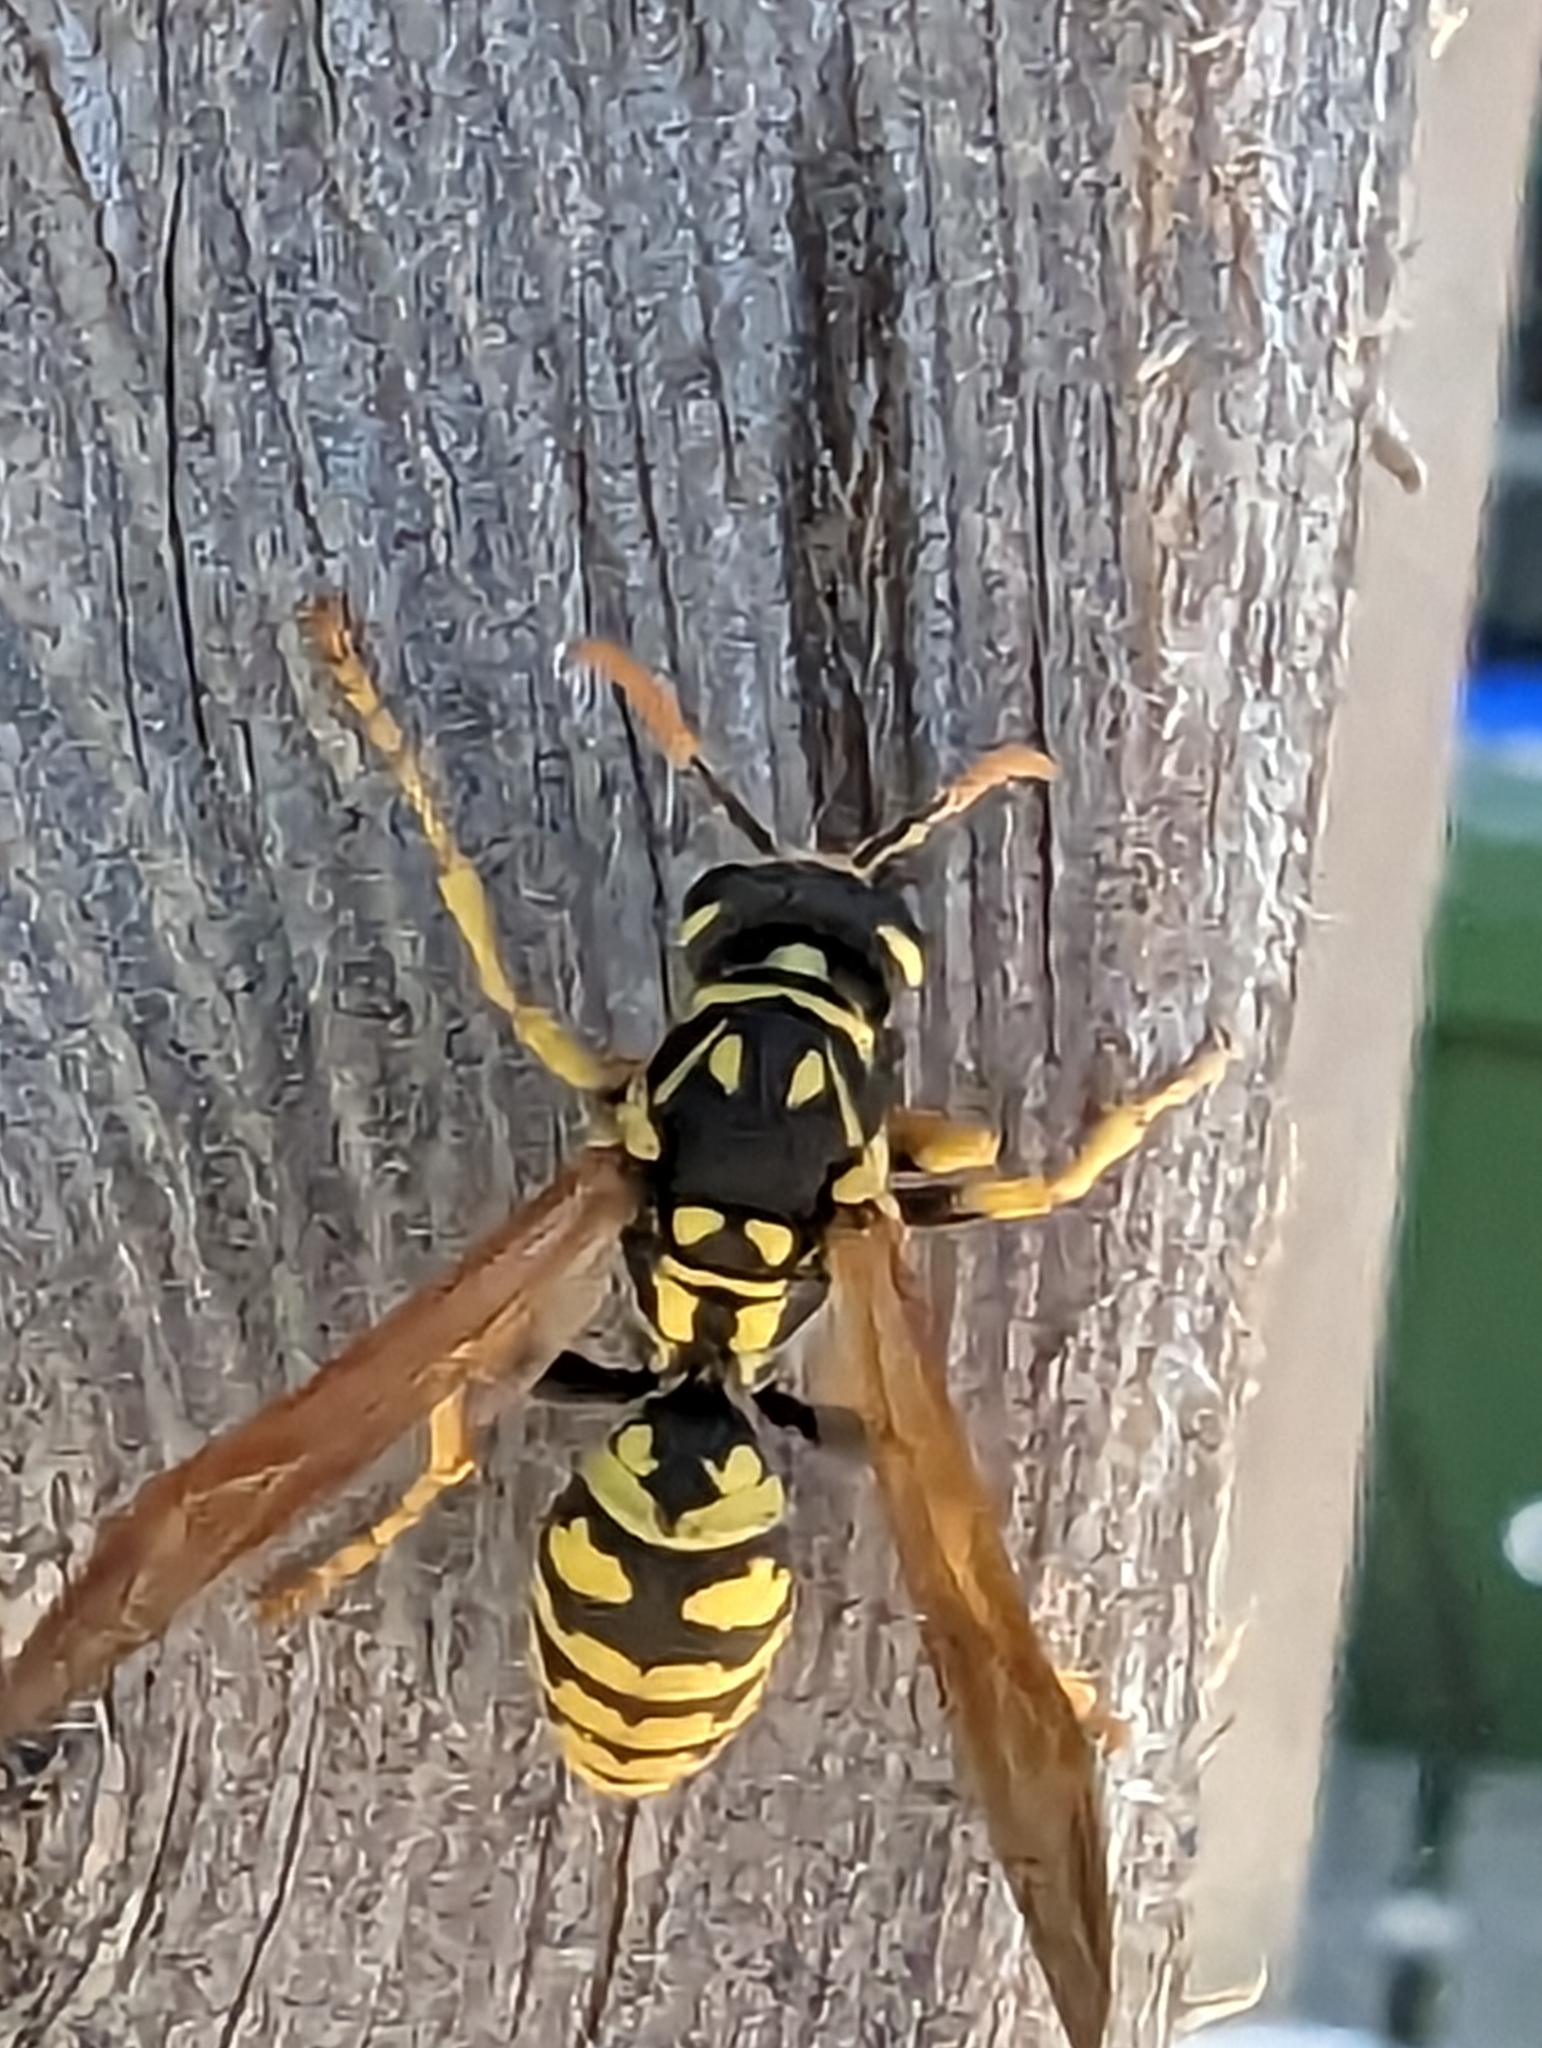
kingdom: Animalia
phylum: Arthropoda
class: Insecta
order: Hymenoptera
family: Eumenidae
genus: Polistes
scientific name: Polistes dominula
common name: Paper wasp
